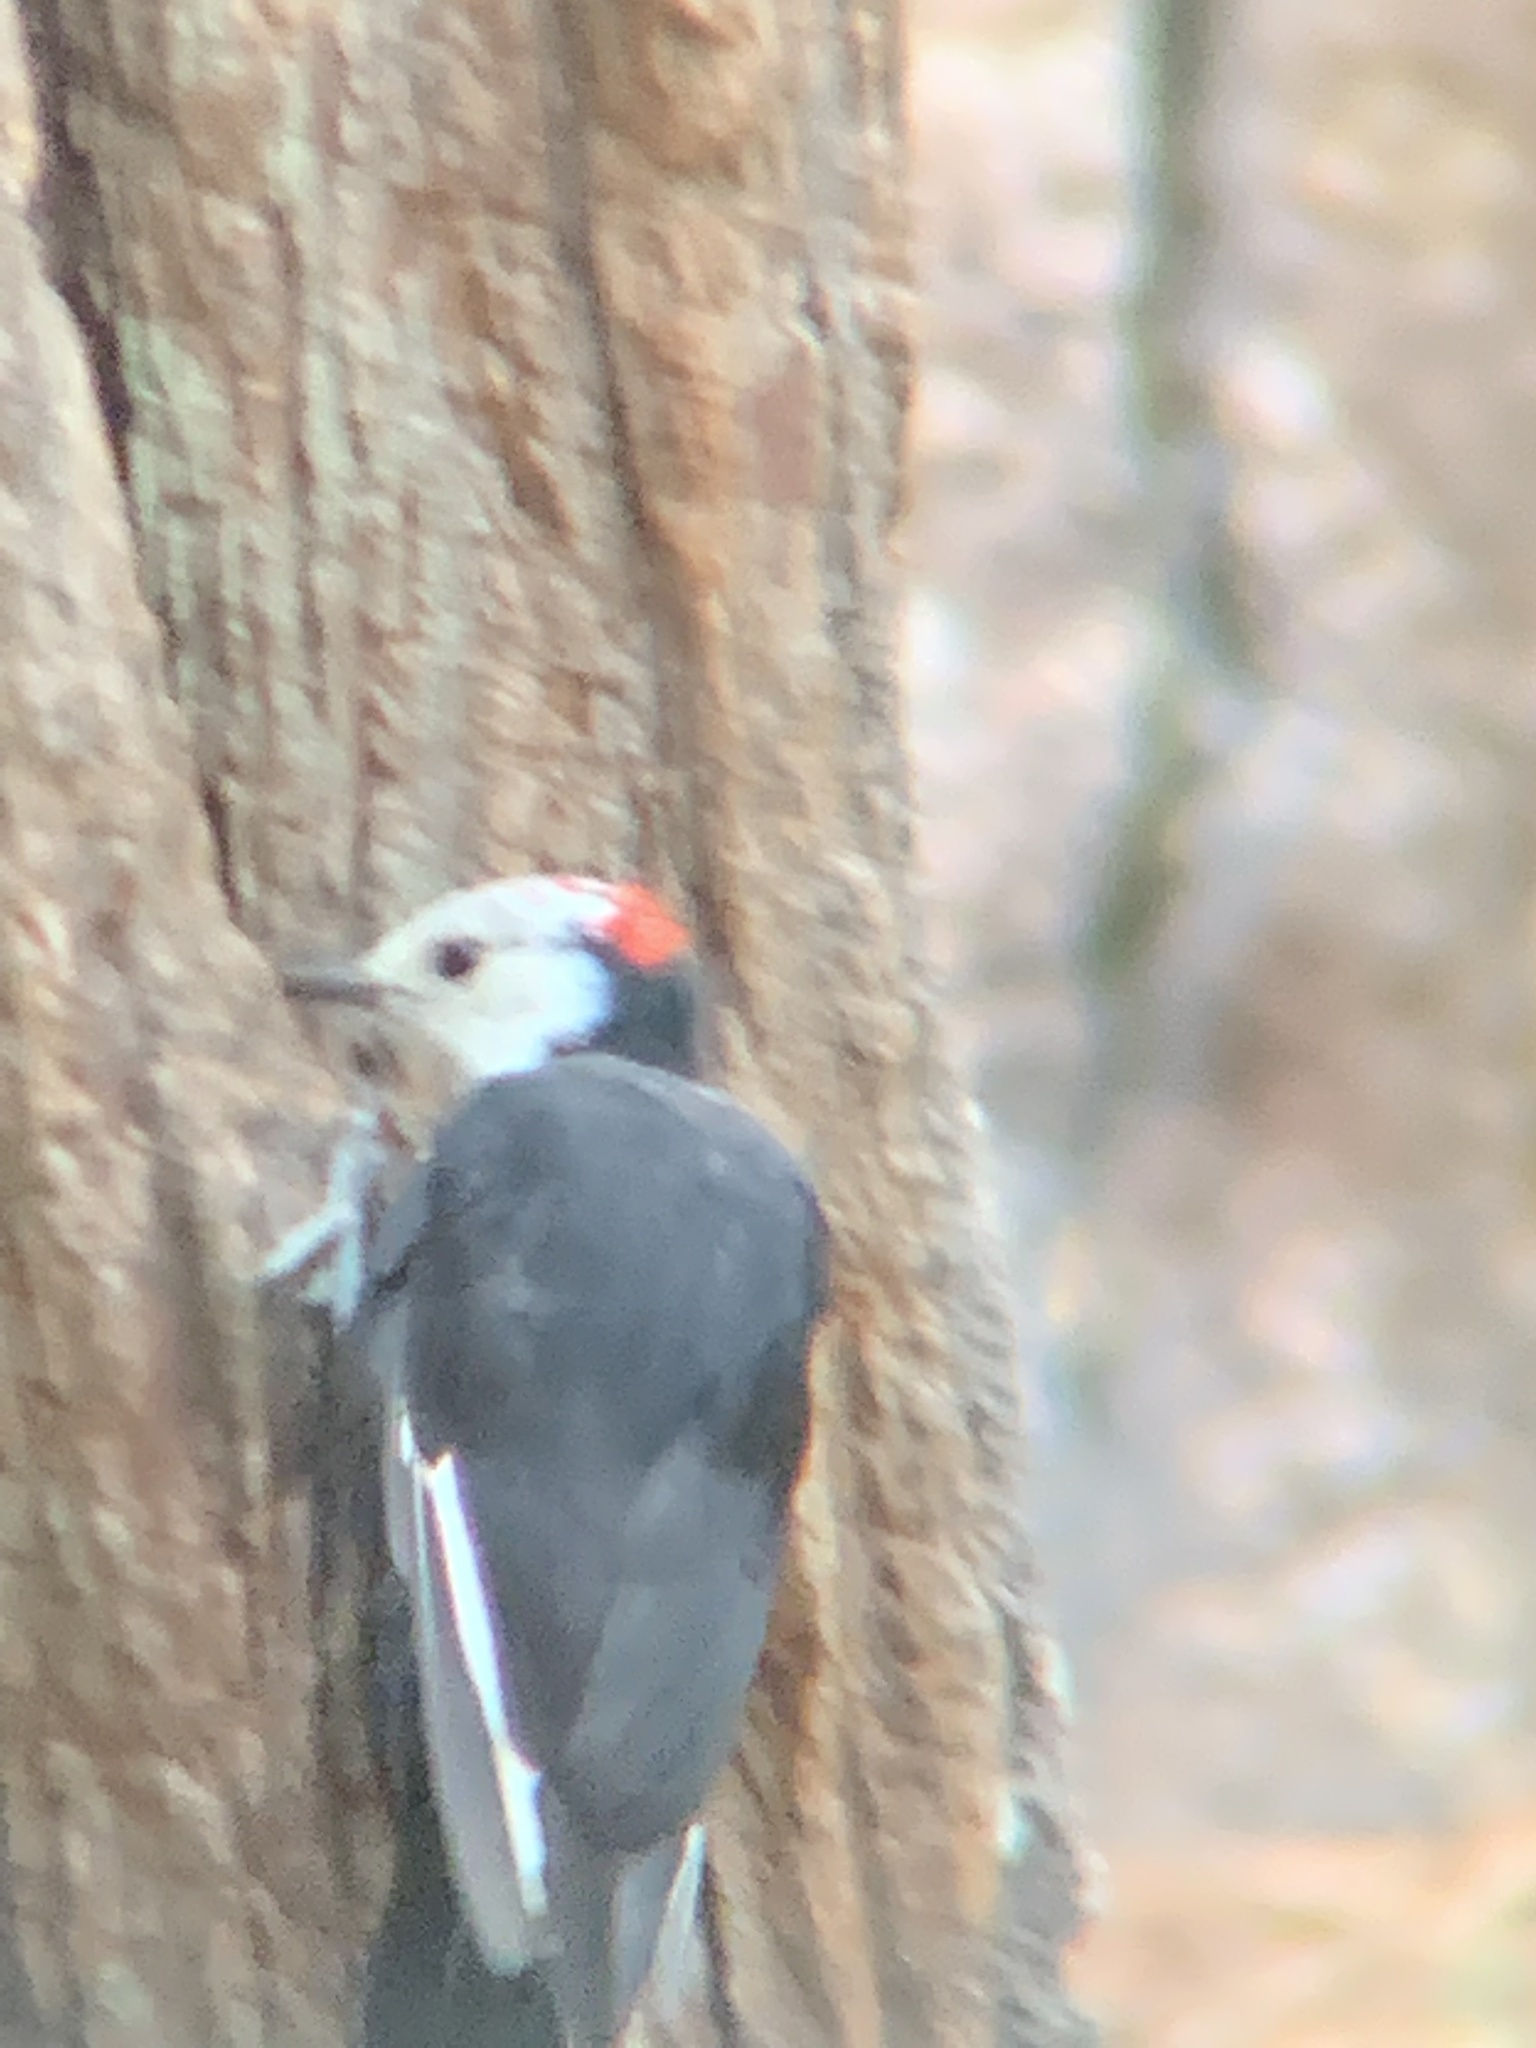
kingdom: Animalia
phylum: Chordata
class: Aves
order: Piciformes
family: Picidae
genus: Leuconotopicus
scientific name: Leuconotopicus albolarvatus
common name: White-headed woodpecker
